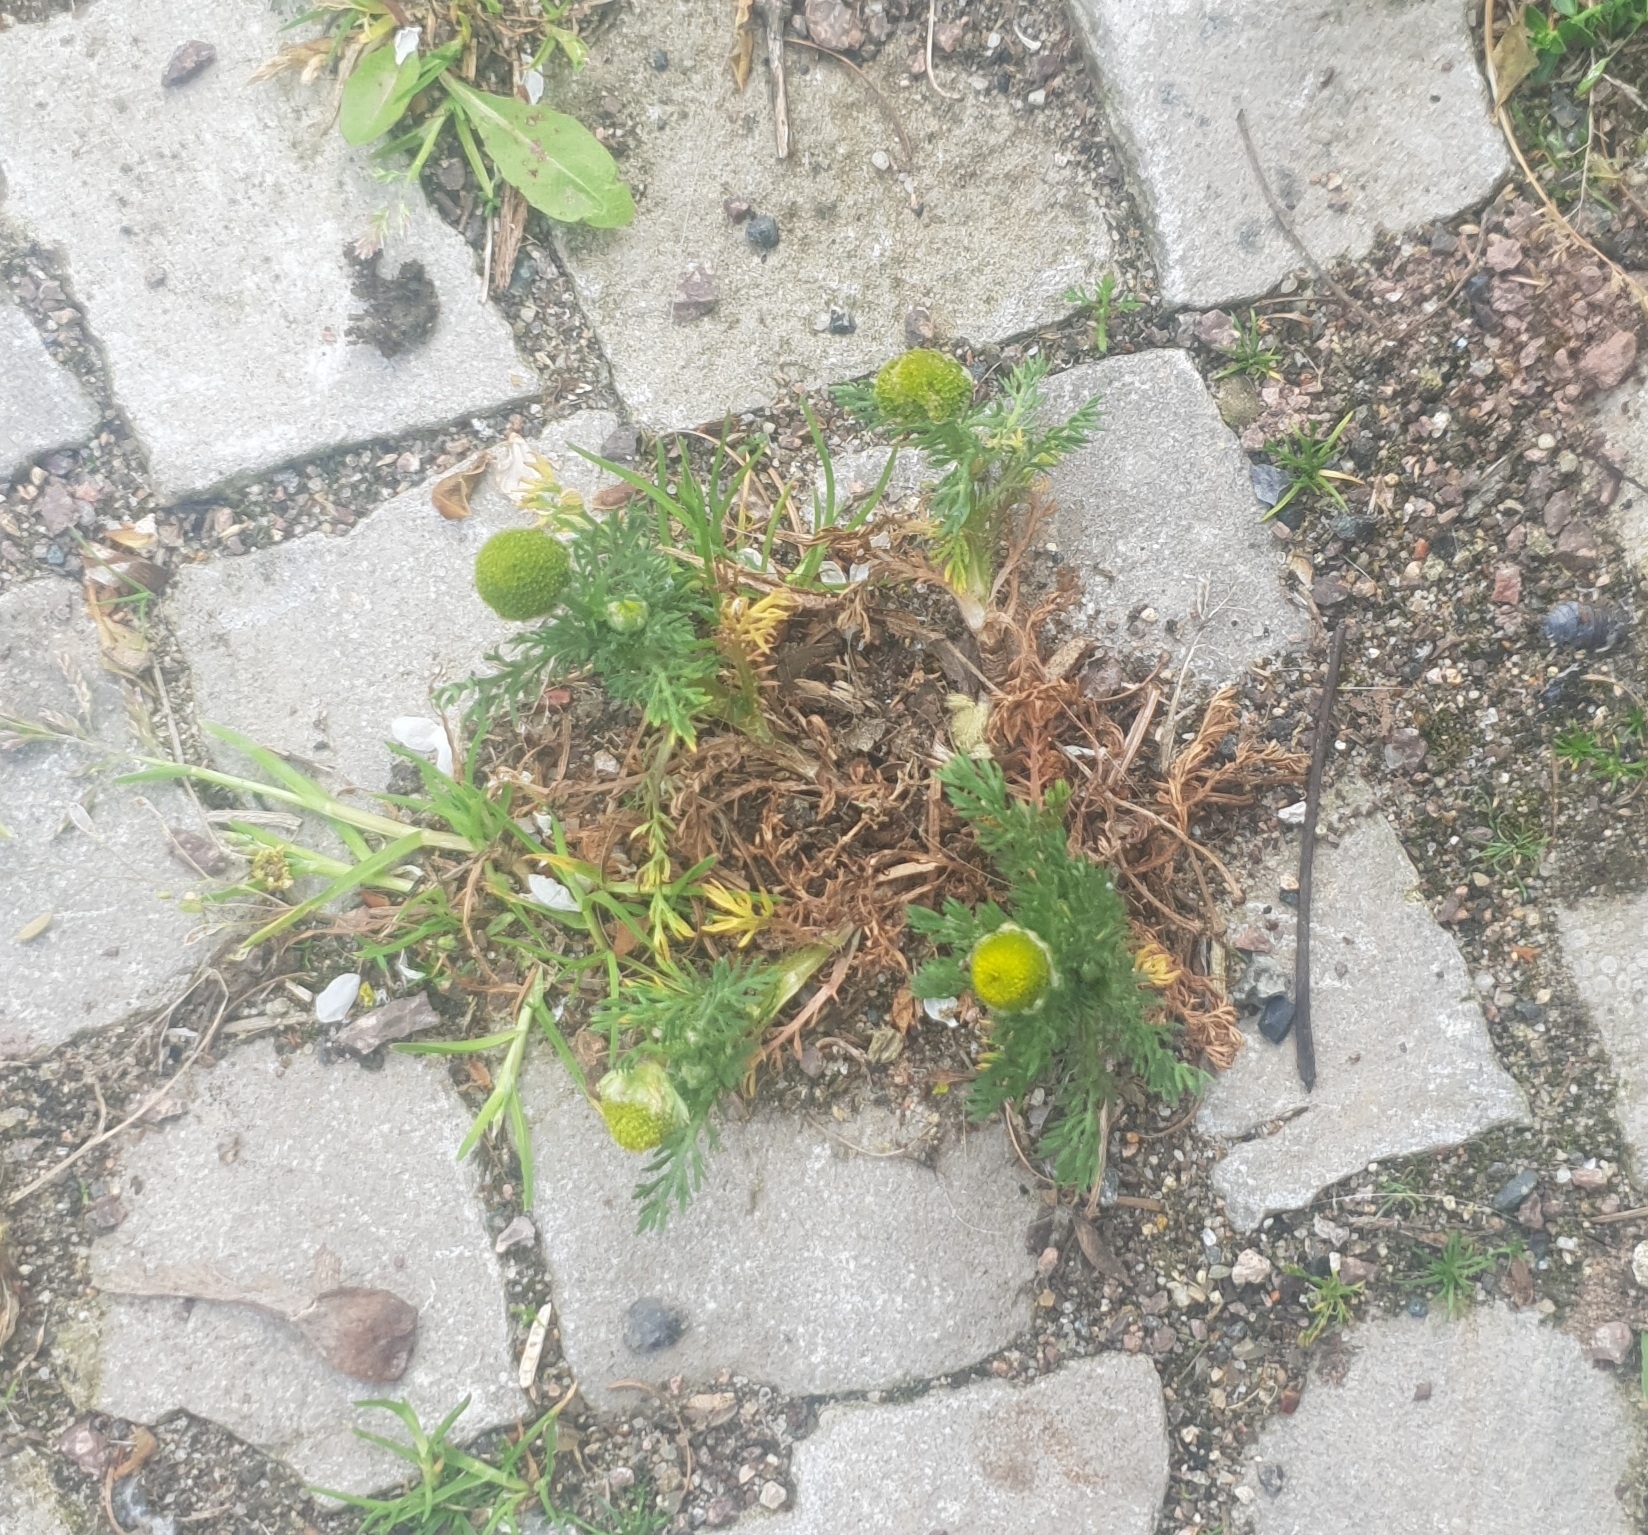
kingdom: Plantae
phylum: Tracheophyta
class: Magnoliopsida
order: Asterales
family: Asteraceae
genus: Matricaria
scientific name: Matricaria discoidea
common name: Disc mayweed
